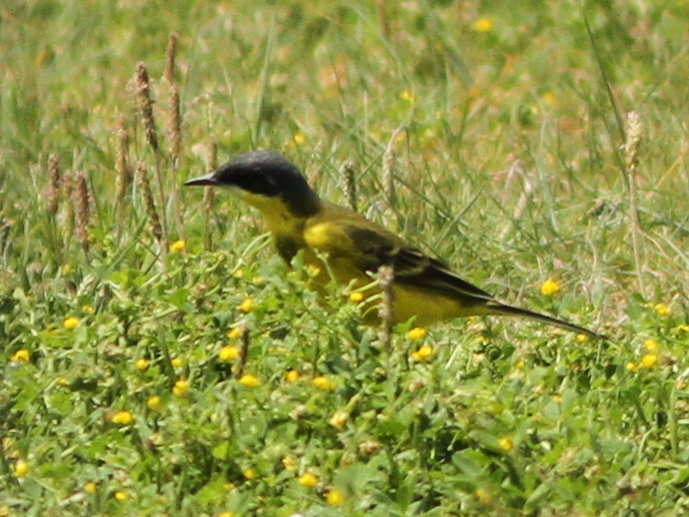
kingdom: Animalia
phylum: Chordata
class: Aves
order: Passeriformes
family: Motacillidae
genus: Motacilla
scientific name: Motacilla flava
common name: Western yellow wagtail
